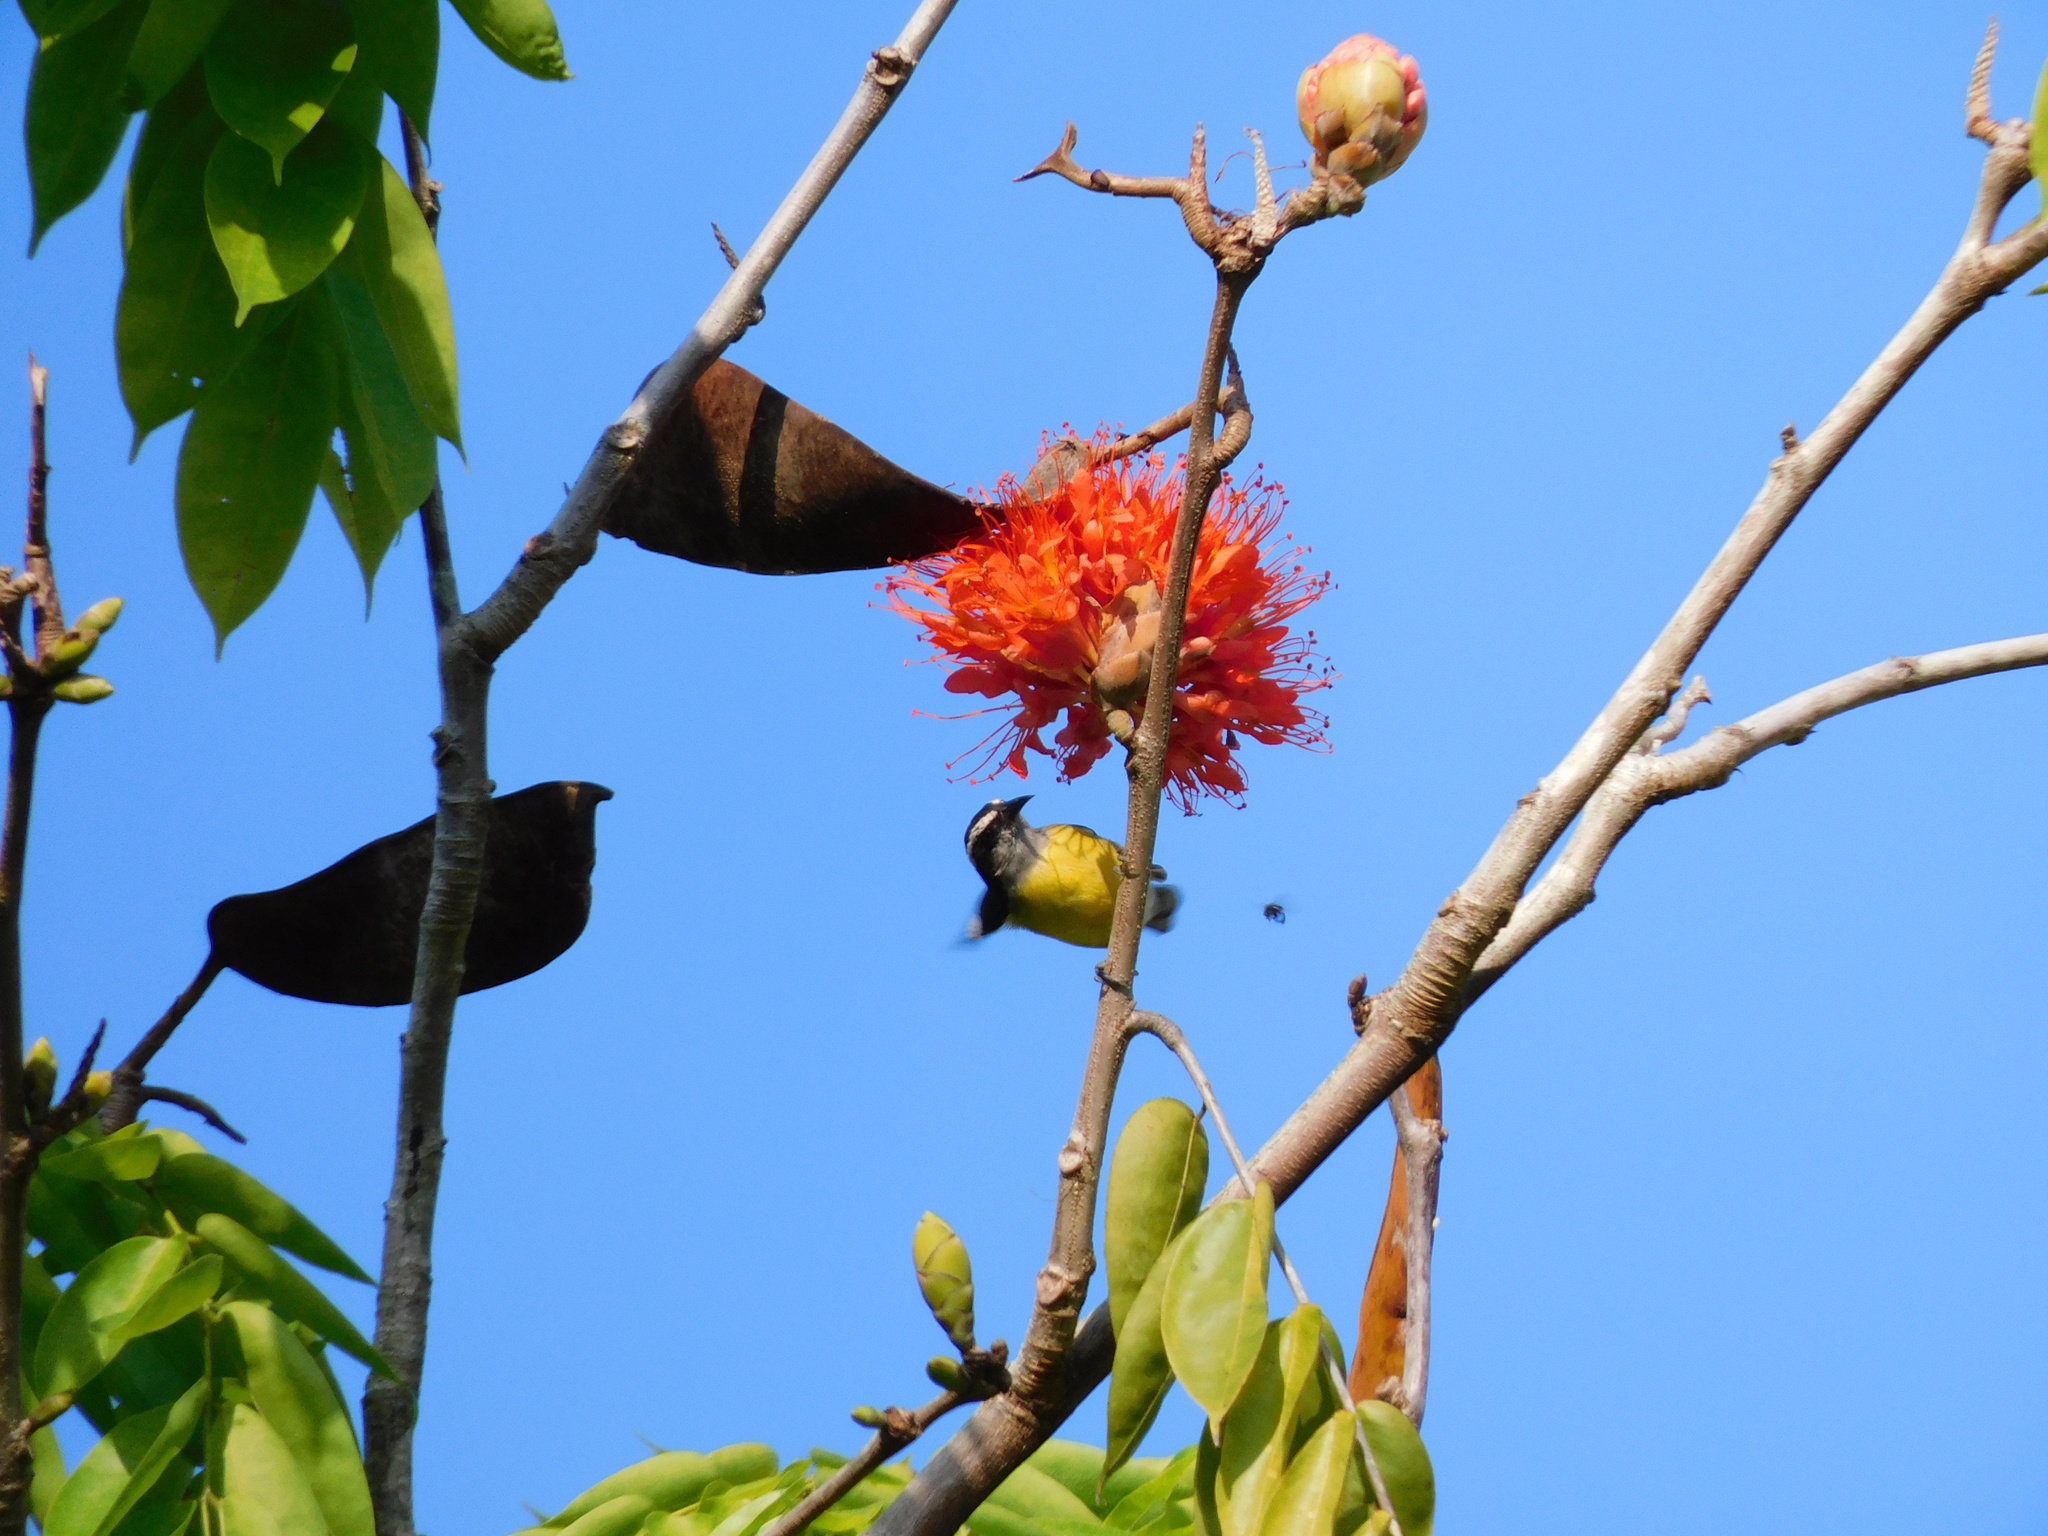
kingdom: Animalia
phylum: Chordata
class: Aves
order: Passeriformes
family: Thraupidae
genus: Coereba
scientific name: Coereba flaveola
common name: Bananaquit
